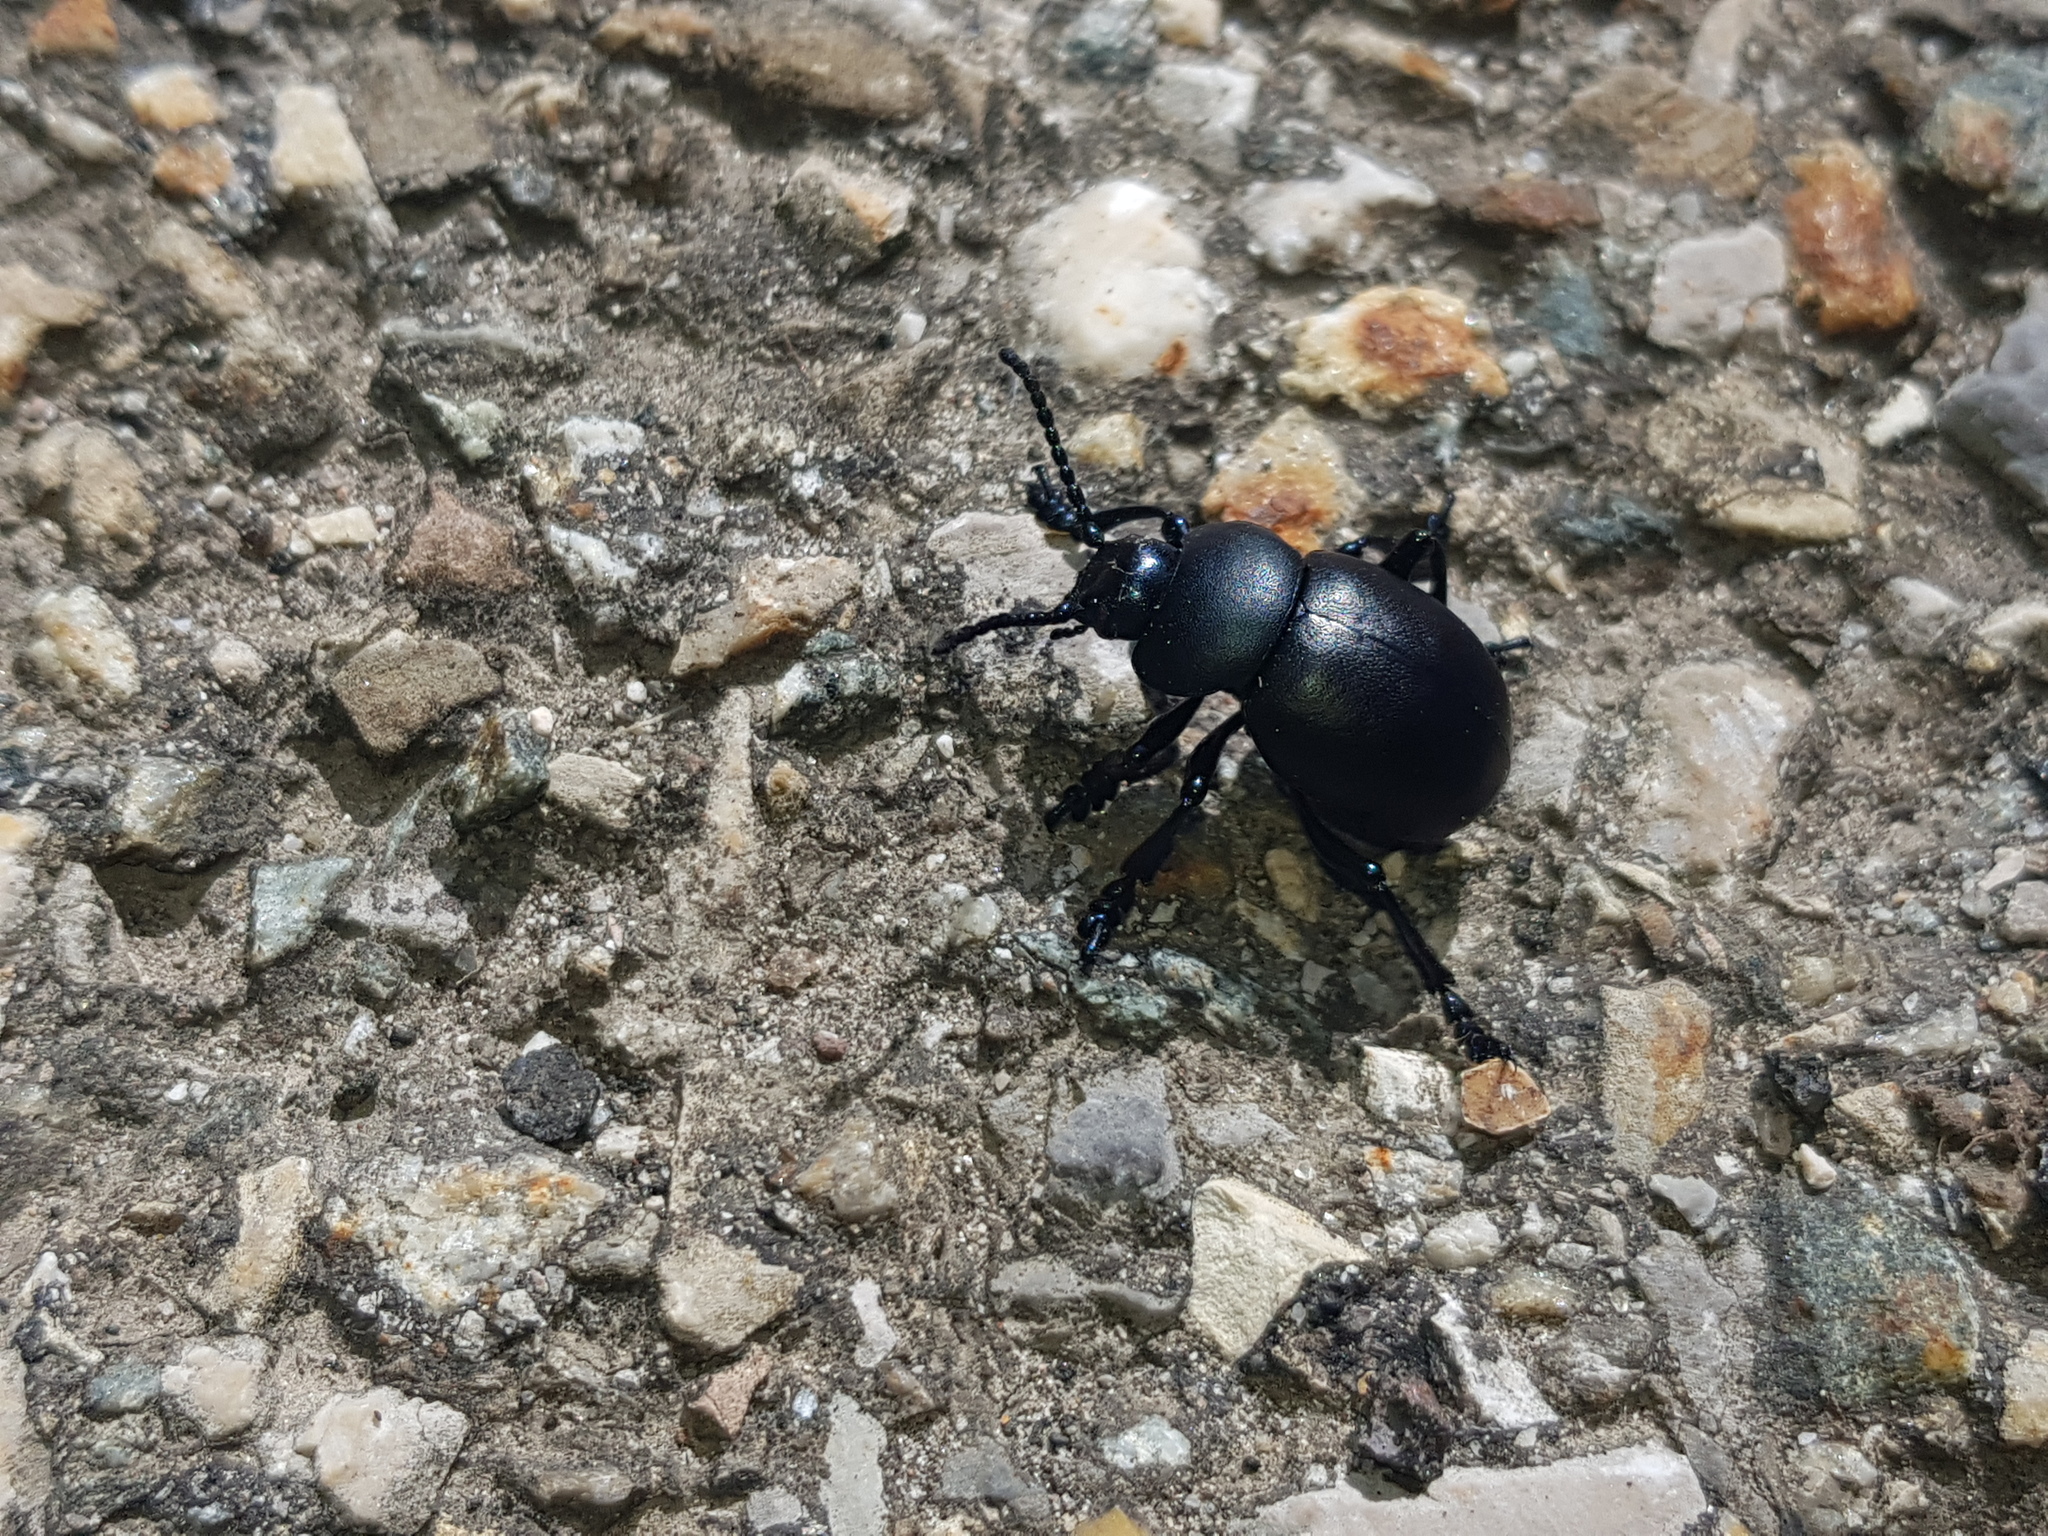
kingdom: Animalia
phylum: Arthropoda
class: Insecta
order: Coleoptera
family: Chrysomelidae
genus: Timarcha
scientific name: Timarcha tenebricosa
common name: Bloody-nosed beetle
